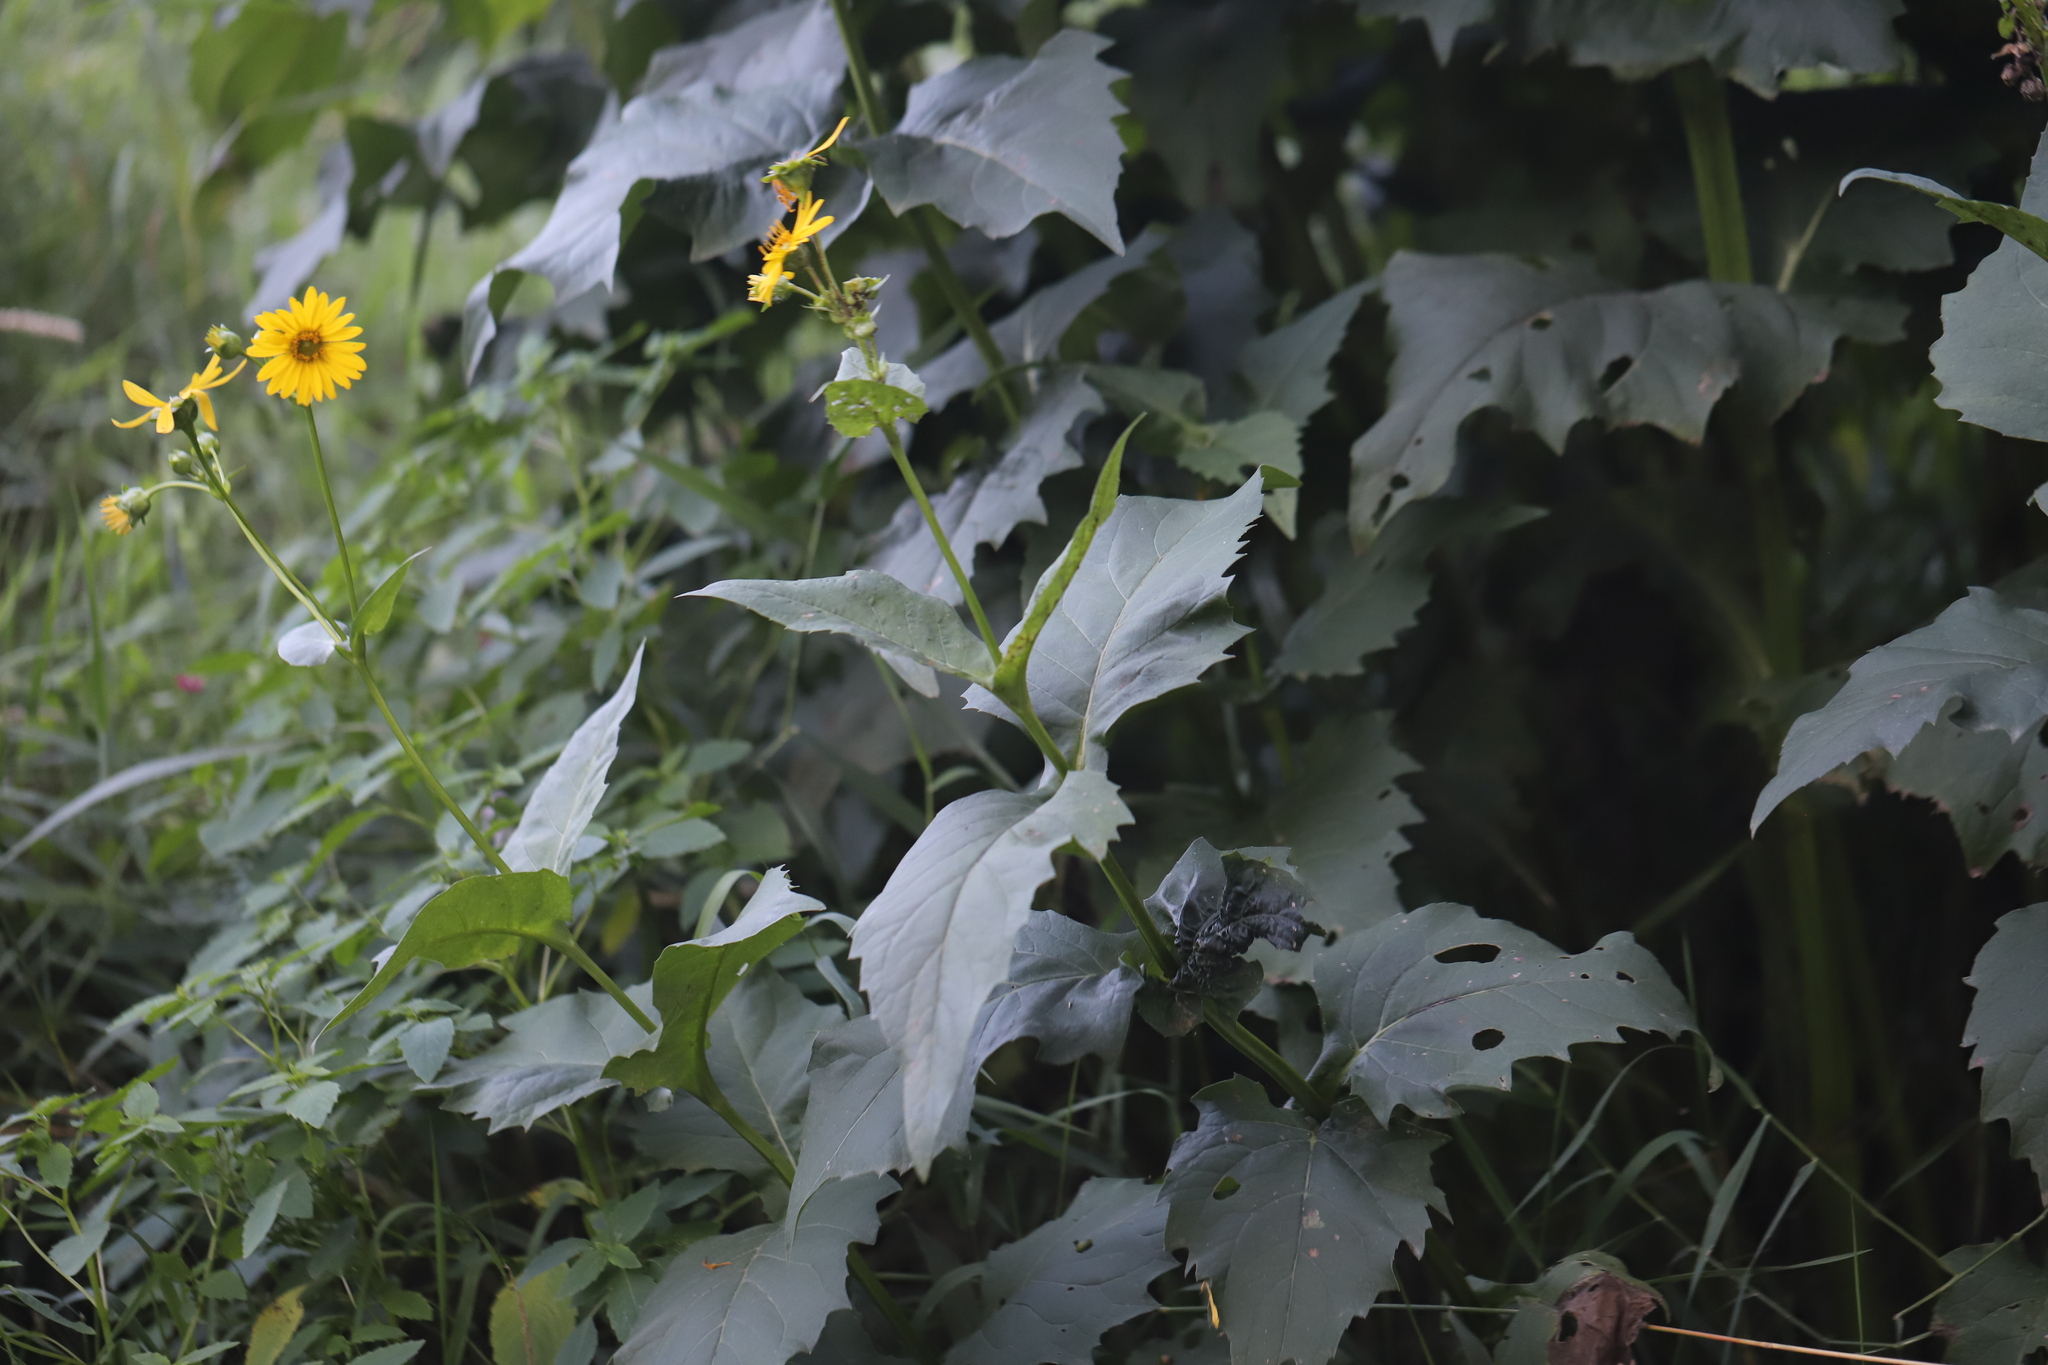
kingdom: Plantae
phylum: Tracheophyta
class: Magnoliopsida
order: Asterales
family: Asteraceae
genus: Silphium
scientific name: Silphium perfoliatum
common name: Cup-plant
